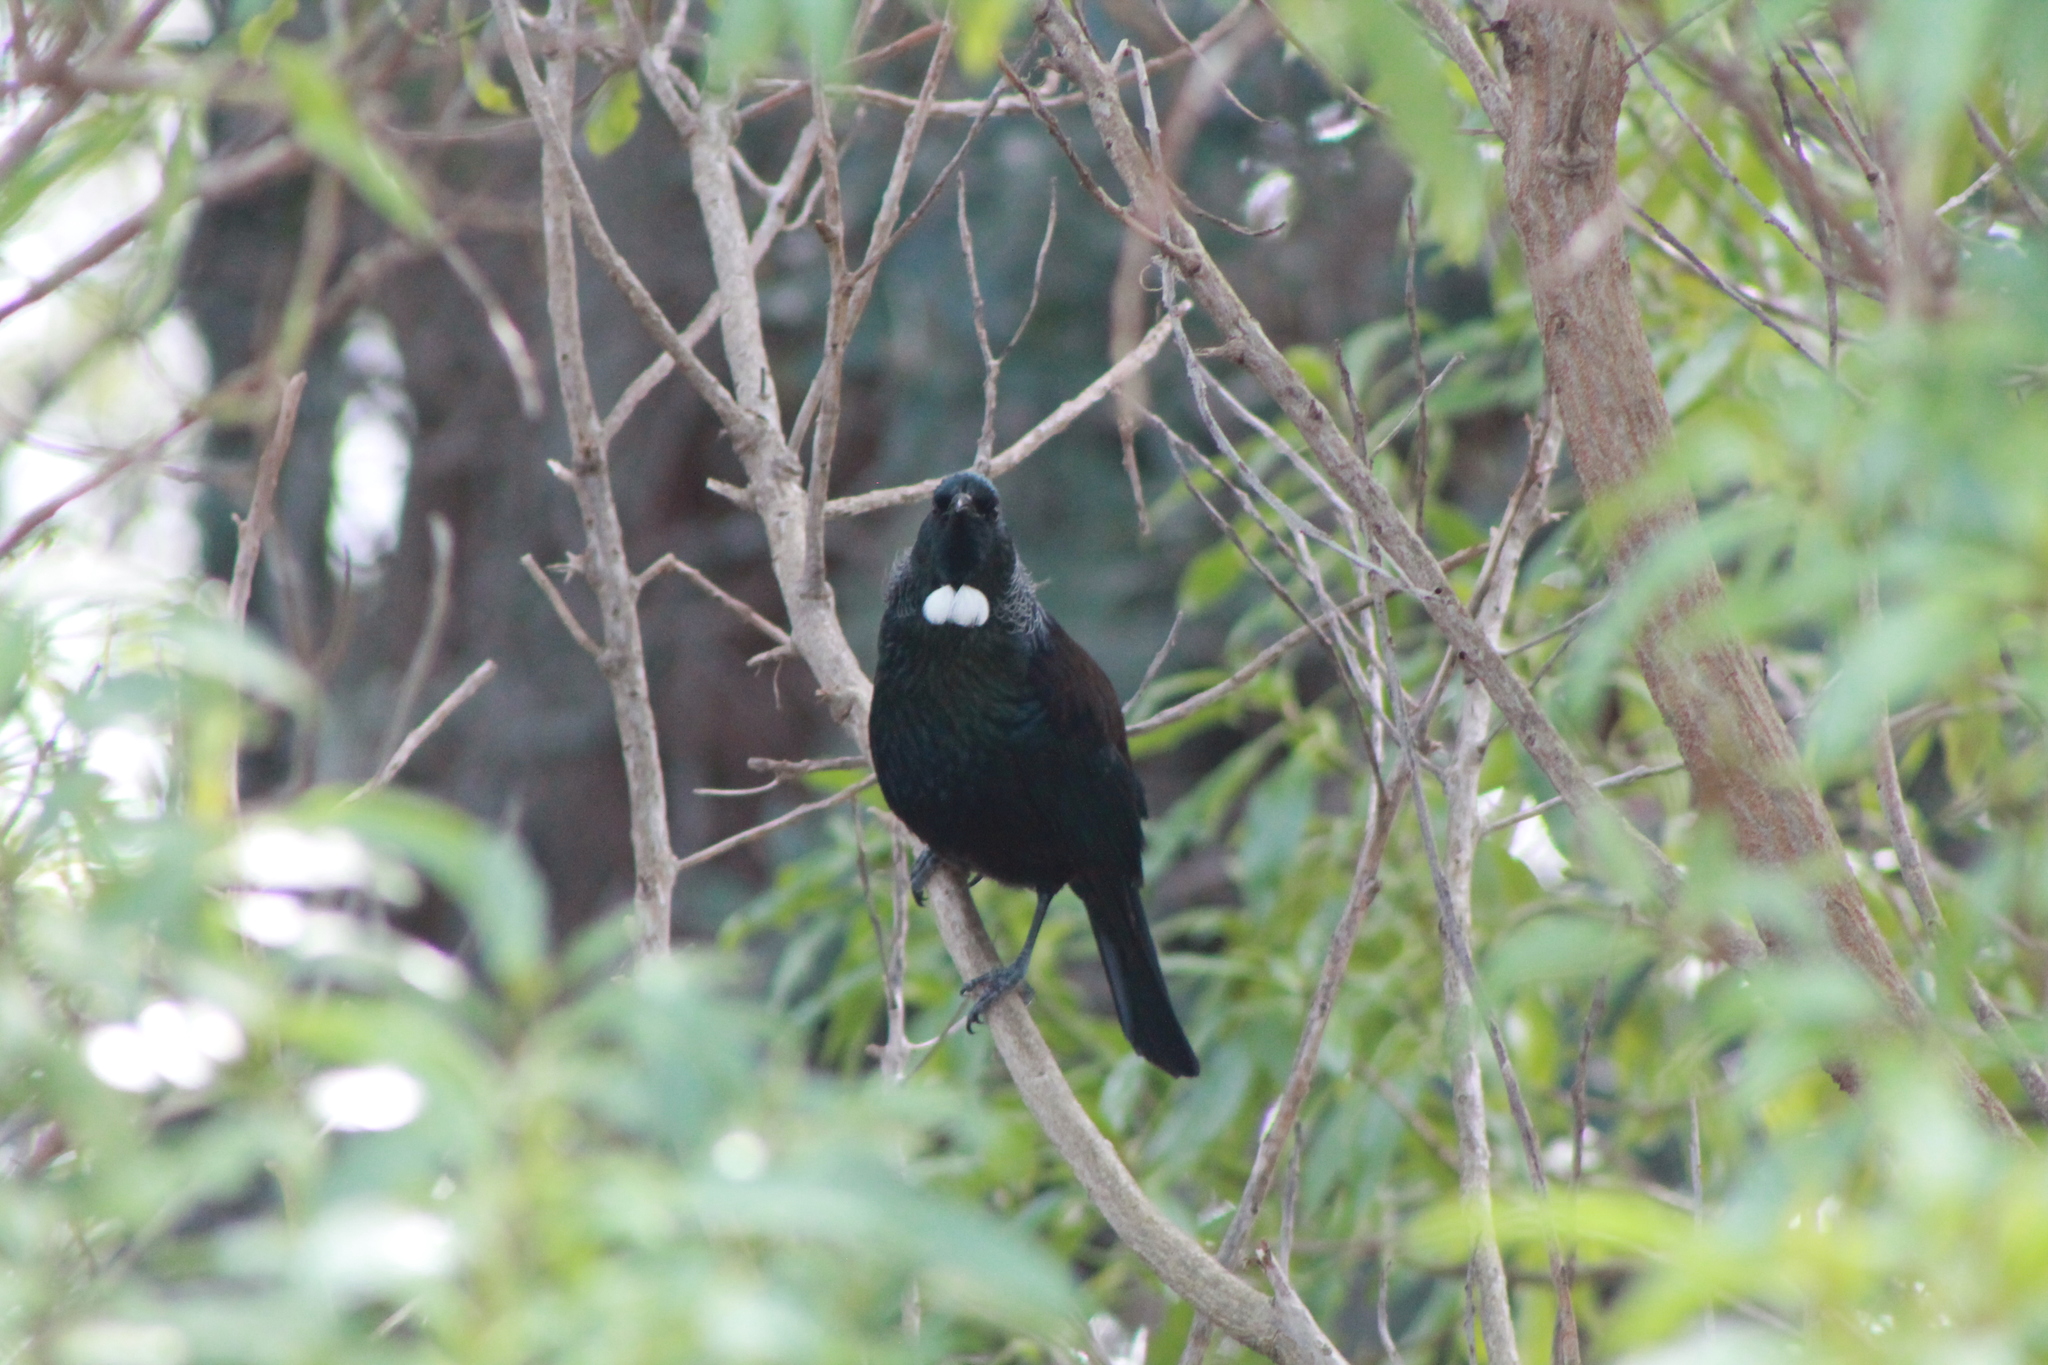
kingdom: Animalia
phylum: Chordata
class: Aves
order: Passeriformes
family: Meliphagidae
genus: Prosthemadera
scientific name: Prosthemadera novaeseelandiae
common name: Tui
